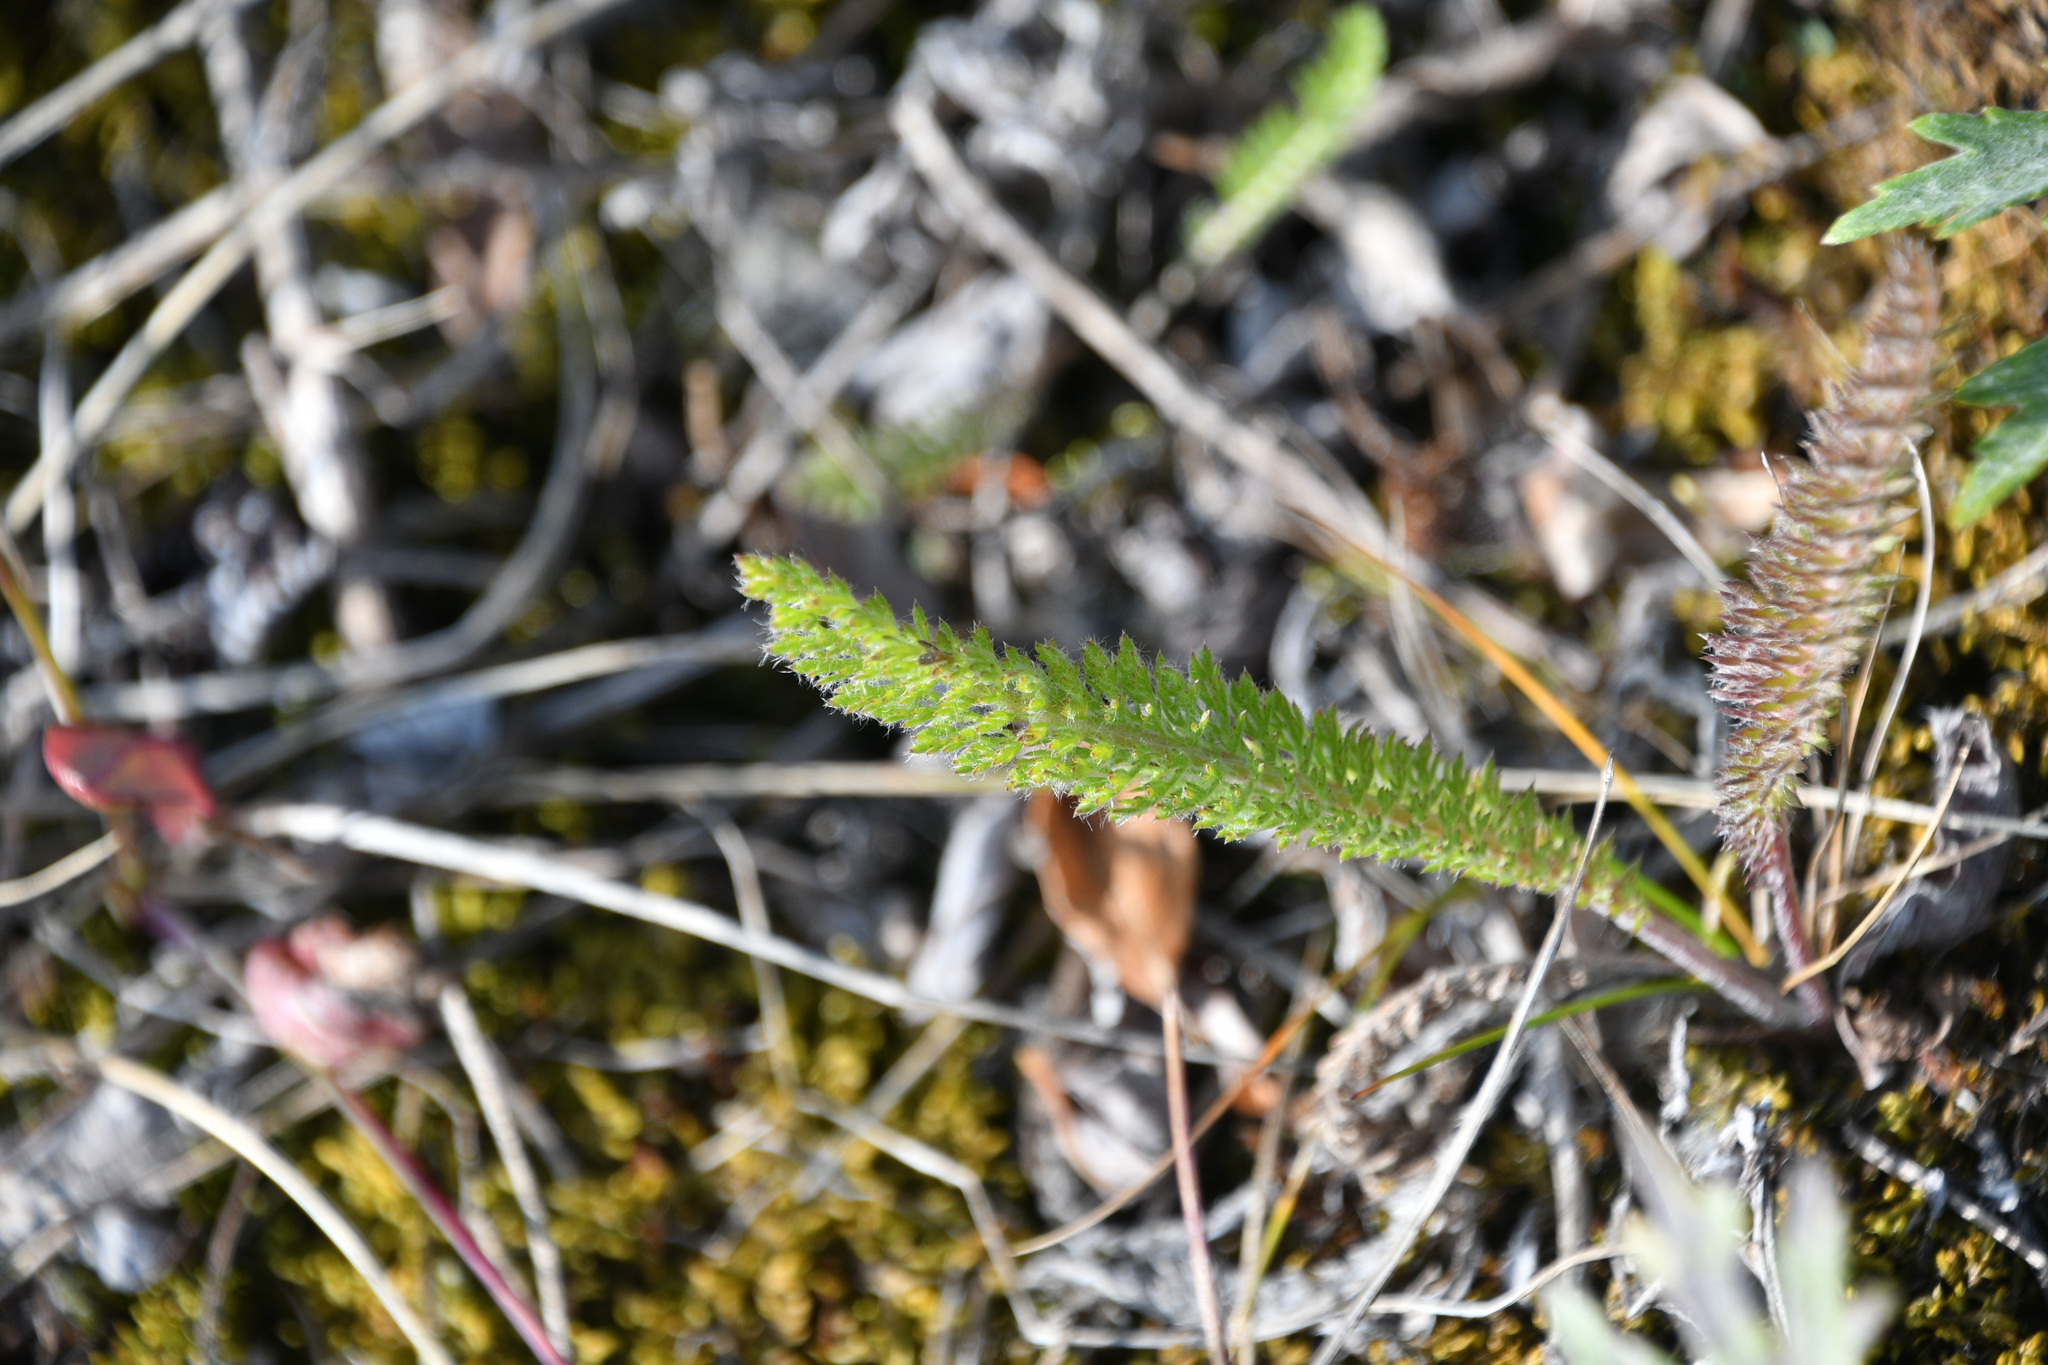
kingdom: Plantae
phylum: Tracheophyta
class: Magnoliopsida
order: Asterales
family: Asteraceae
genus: Achillea
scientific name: Achillea millefolium
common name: Yarrow
